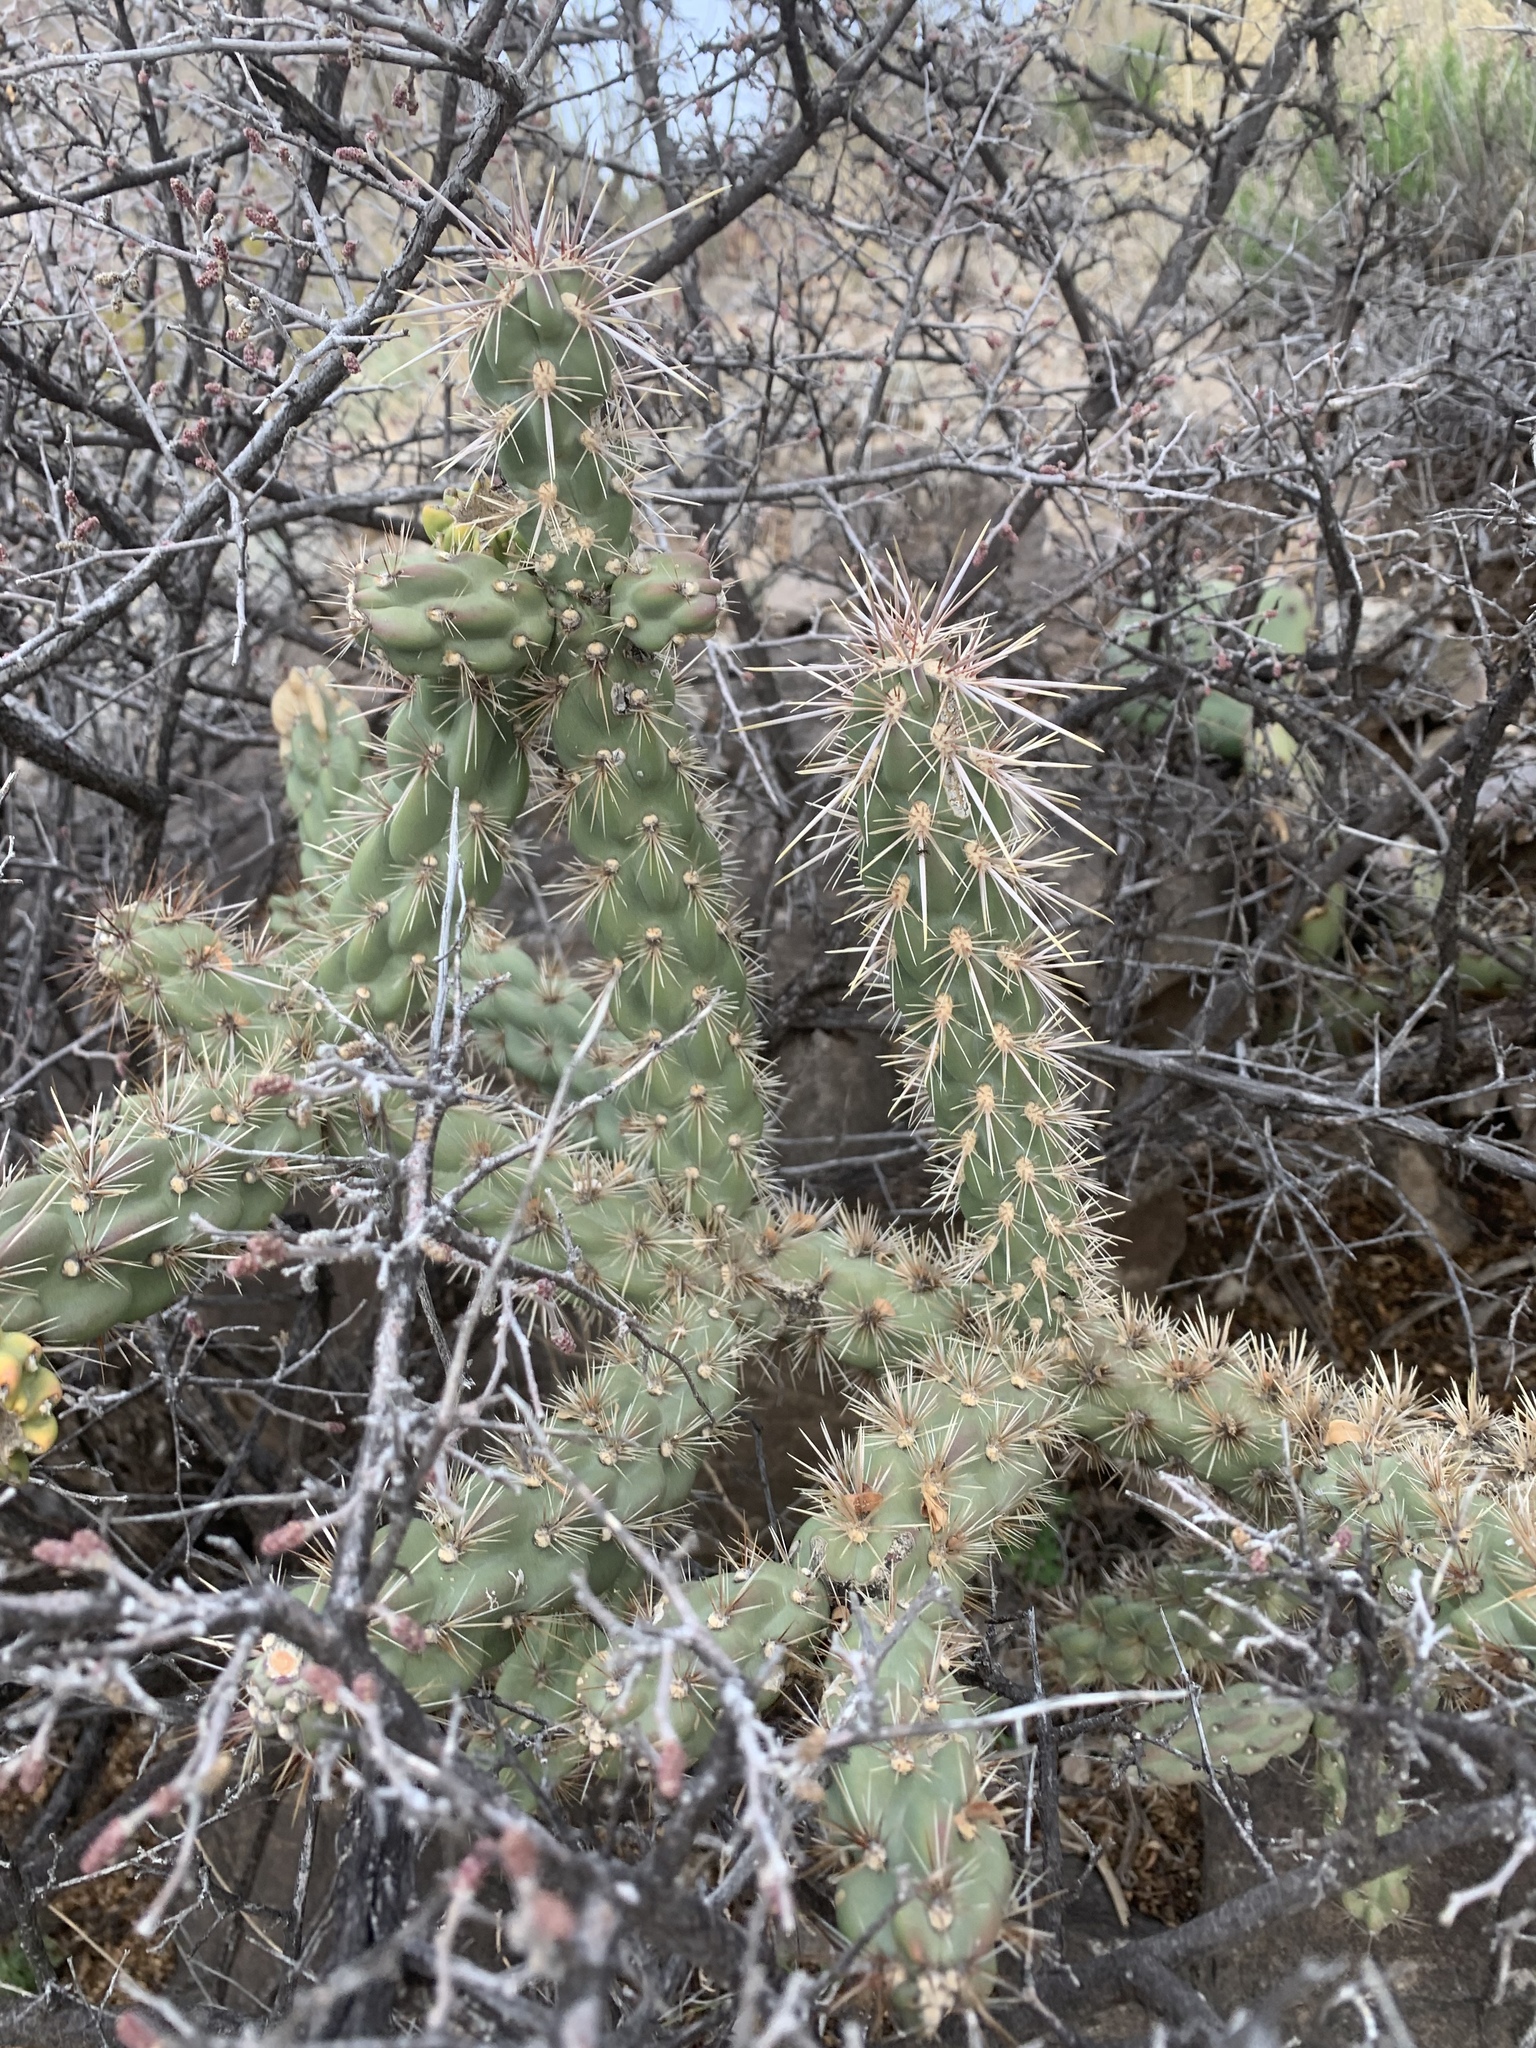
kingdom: Plantae
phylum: Tracheophyta
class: Magnoliopsida
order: Caryophyllales
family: Cactaceae
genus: Cylindropuntia
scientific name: Cylindropuntia imbricata
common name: Candelabrum cactus
